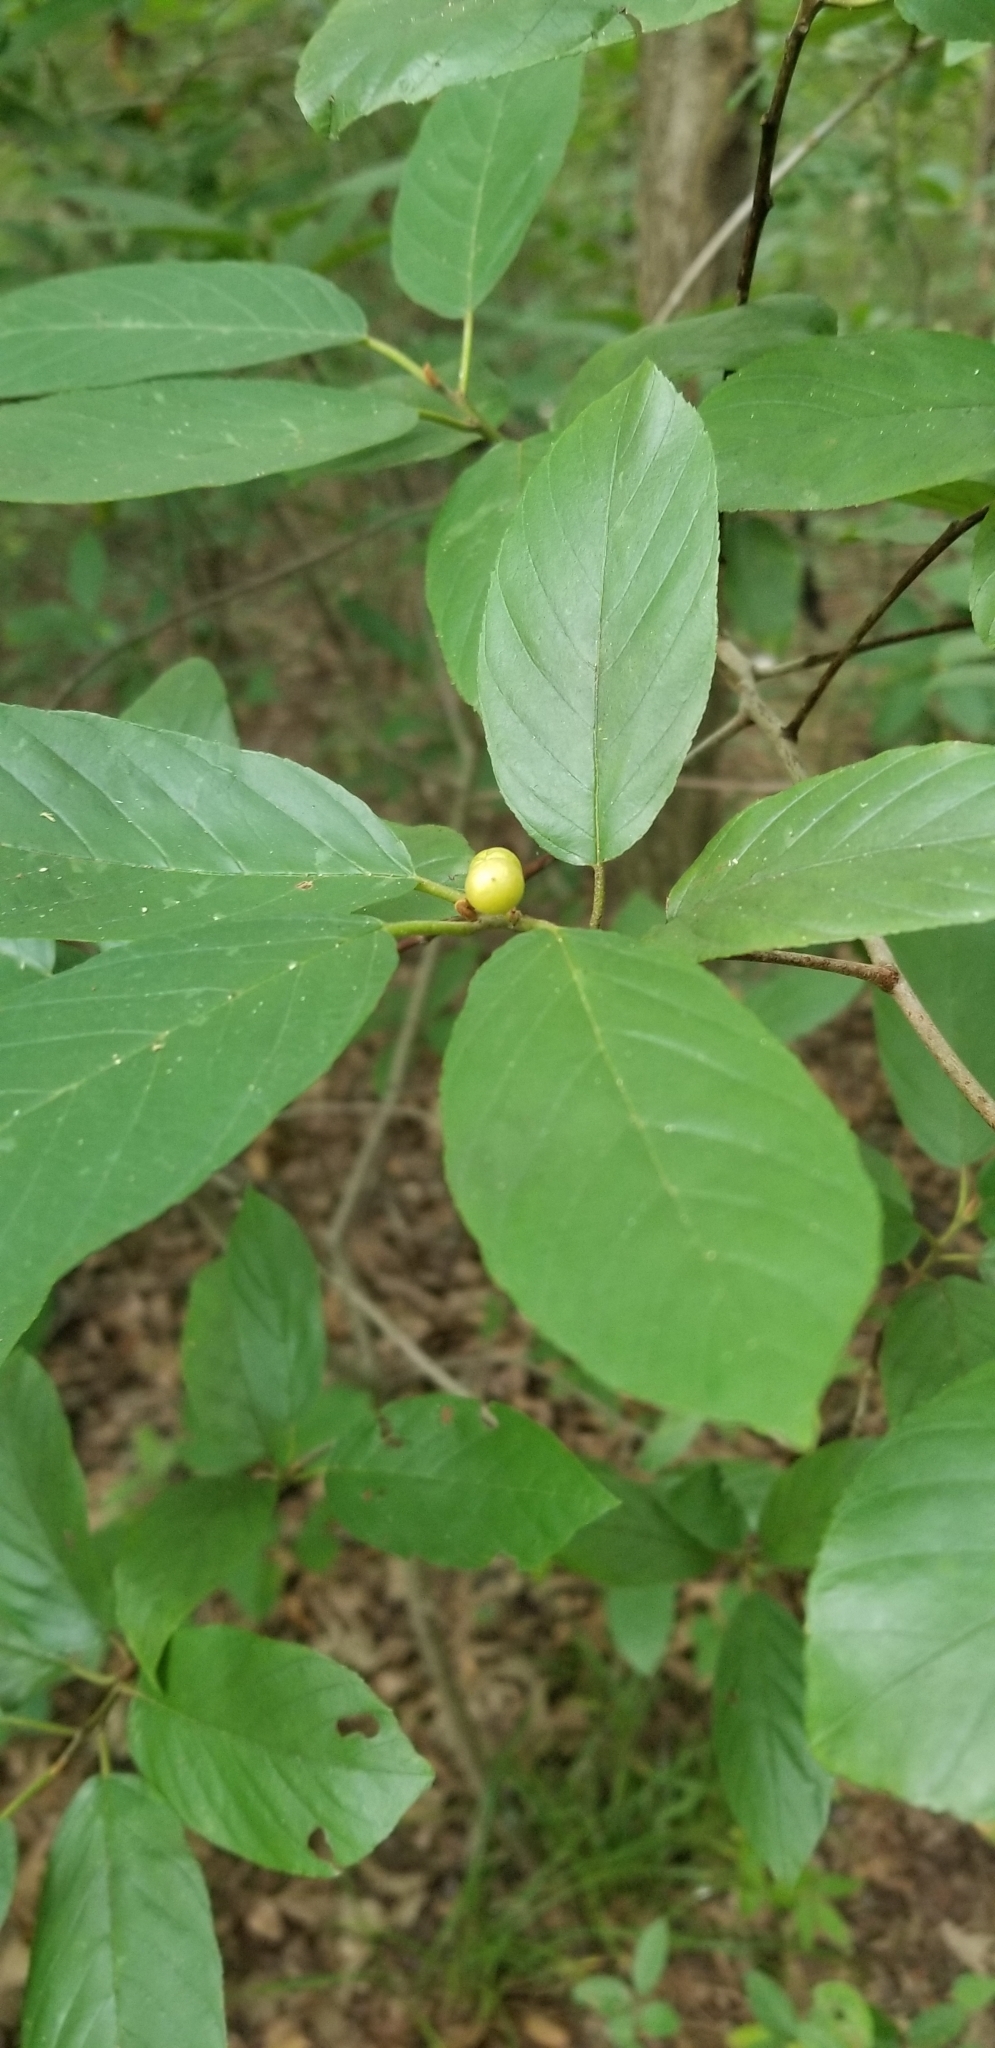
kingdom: Plantae
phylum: Tracheophyta
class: Magnoliopsida
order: Rosales
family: Rhamnaceae
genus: Frangula
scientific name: Frangula caroliniana
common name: Carolina buckthorn
